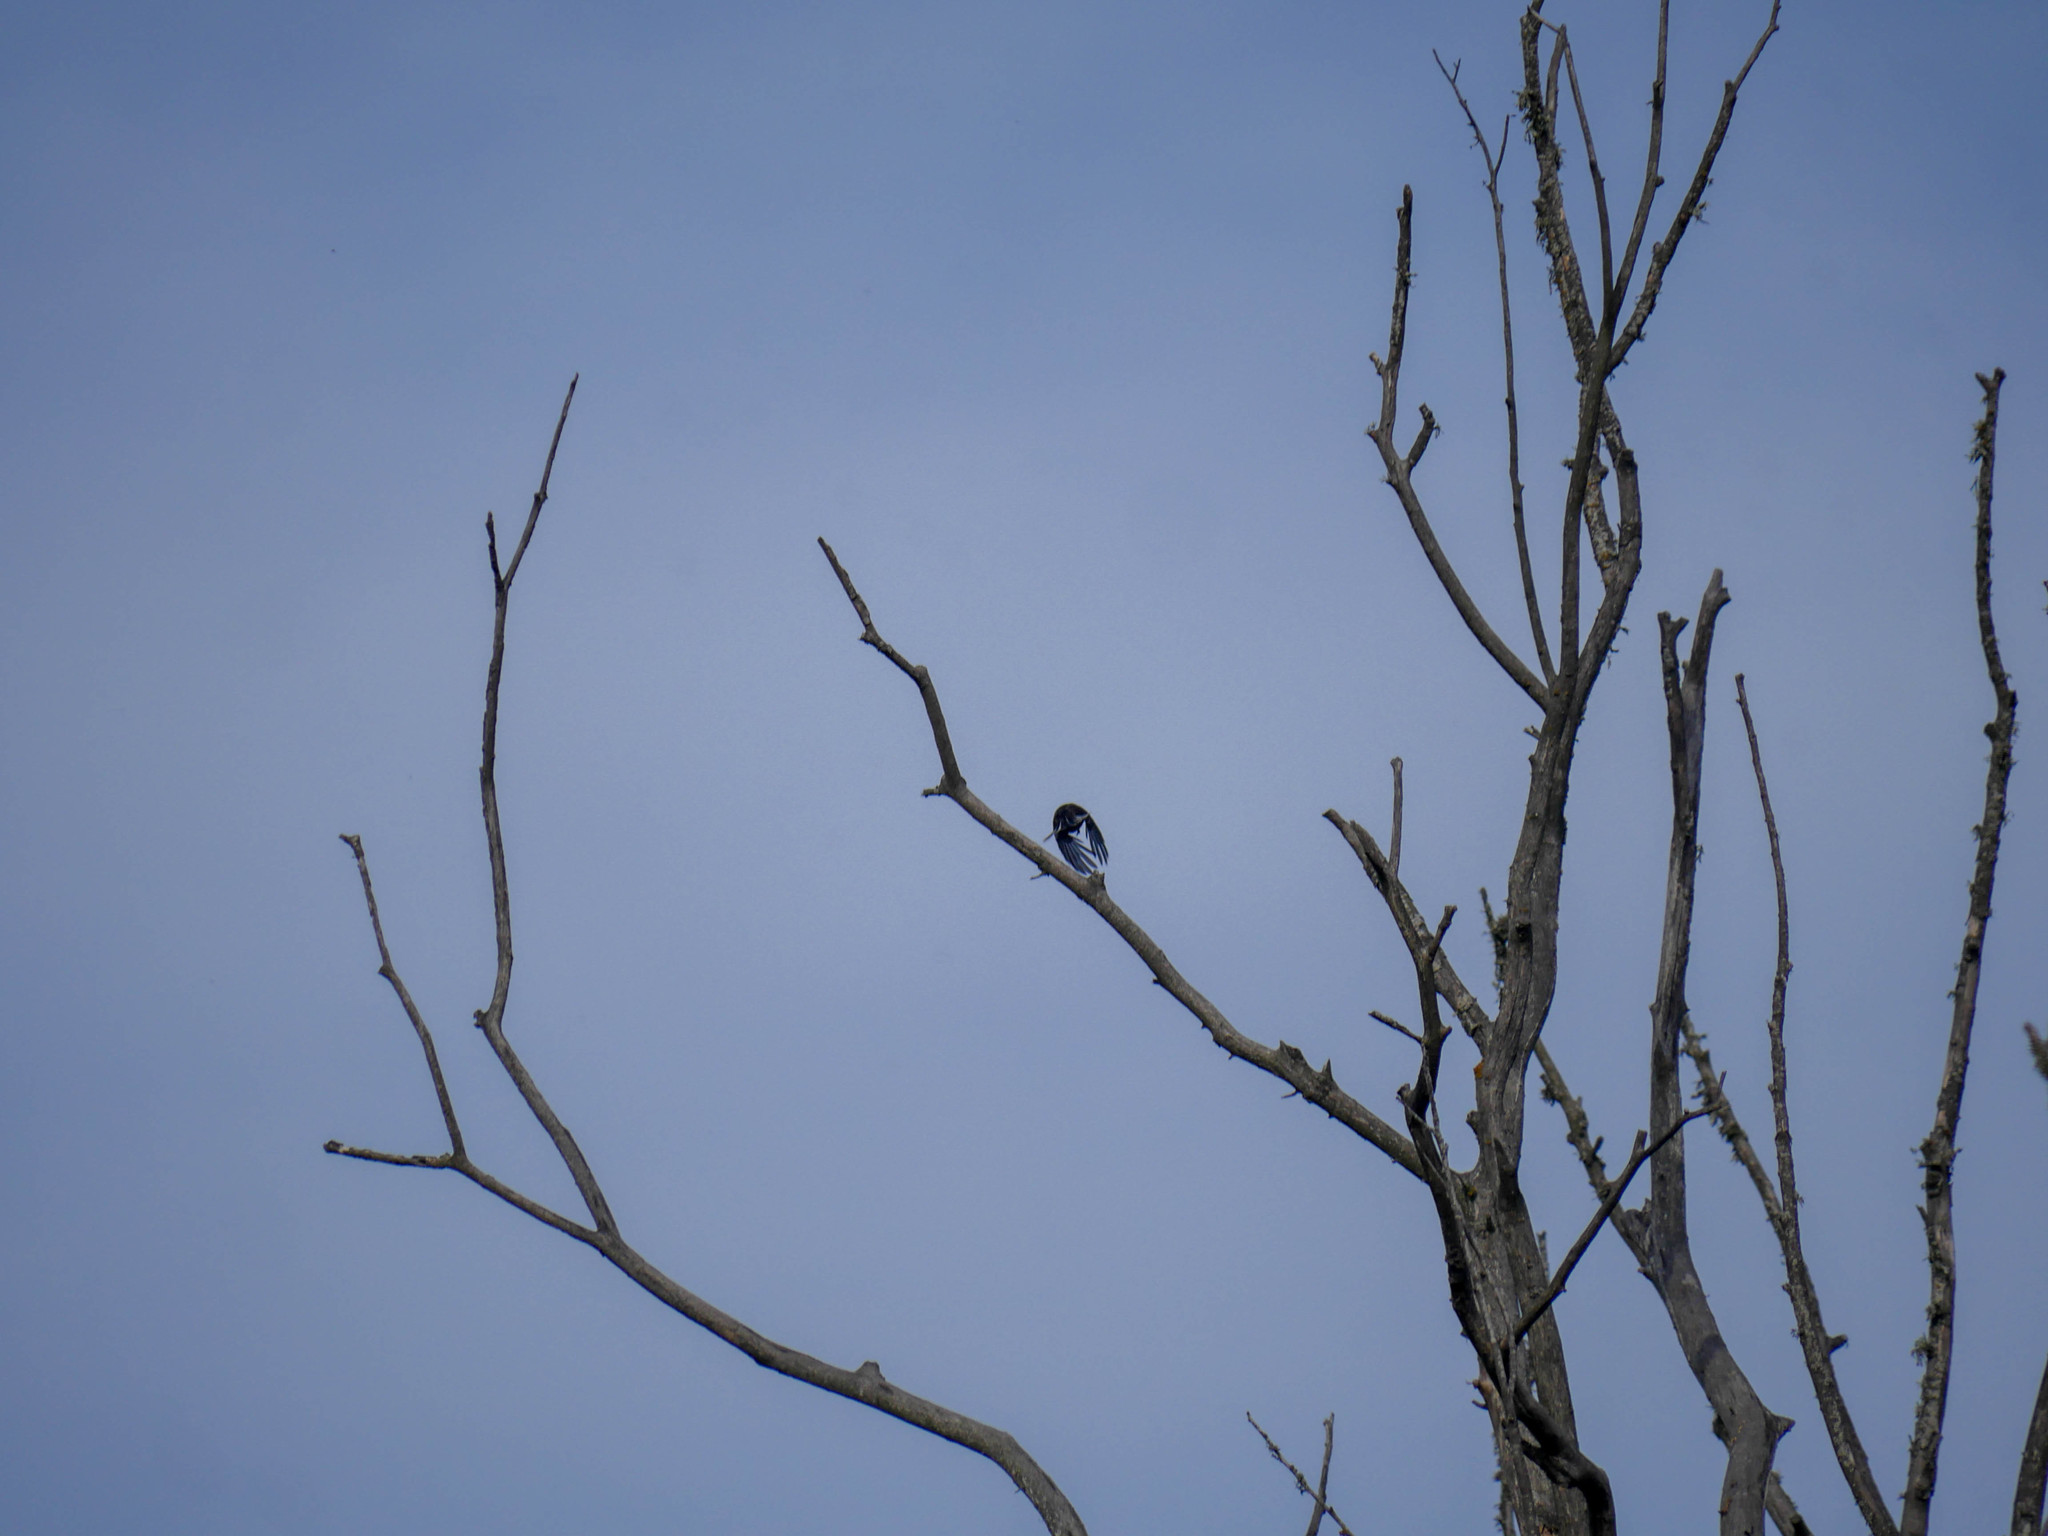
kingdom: Animalia
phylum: Chordata
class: Aves
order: Passeriformes
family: Rhipiduridae
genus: Rhipidura
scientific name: Rhipidura fuliginosa
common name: New zealand fantail
